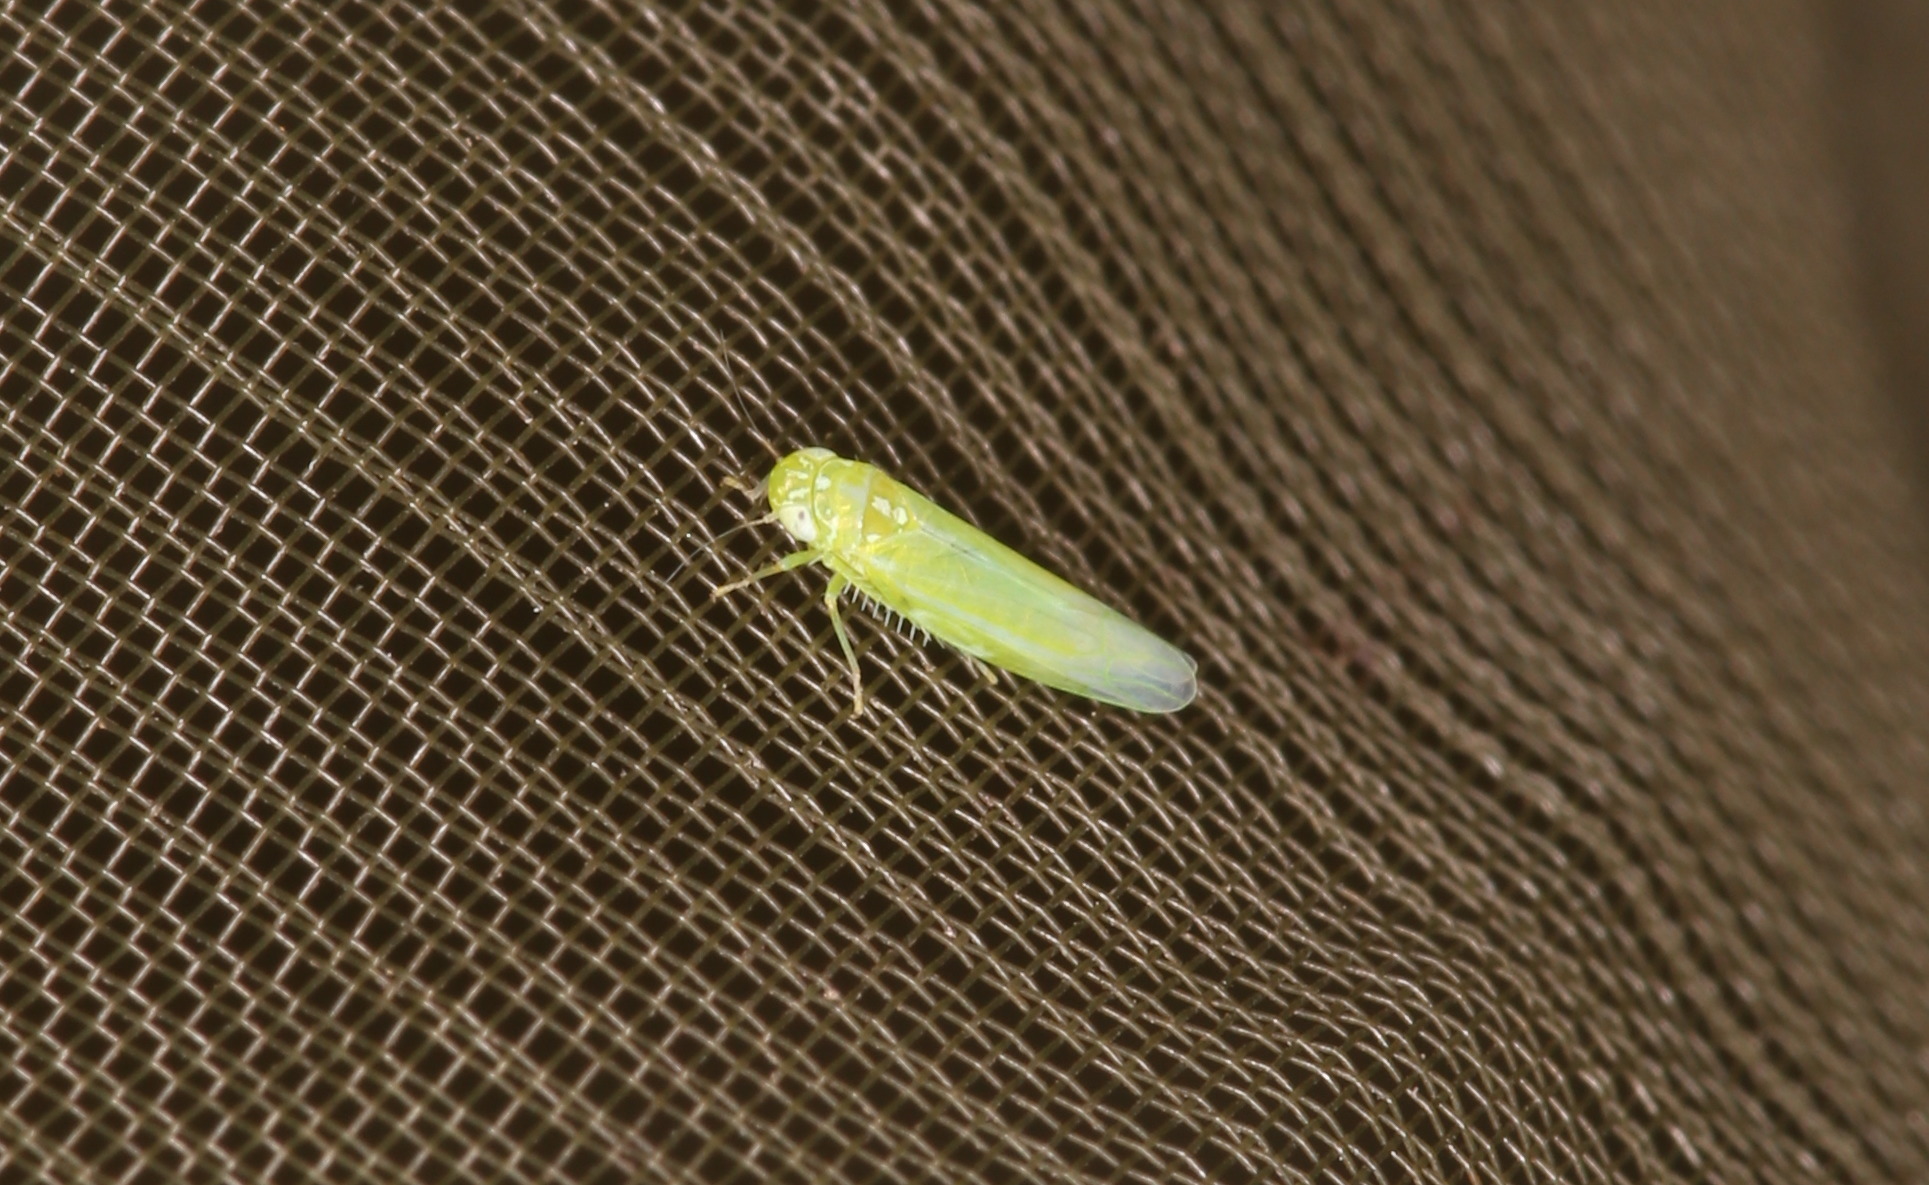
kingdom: Animalia
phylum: Arthropoda
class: Insecta
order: Hemiptera
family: Cicadellidae
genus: Hebata
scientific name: Hebata vitis
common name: The smaller green leafhopper
